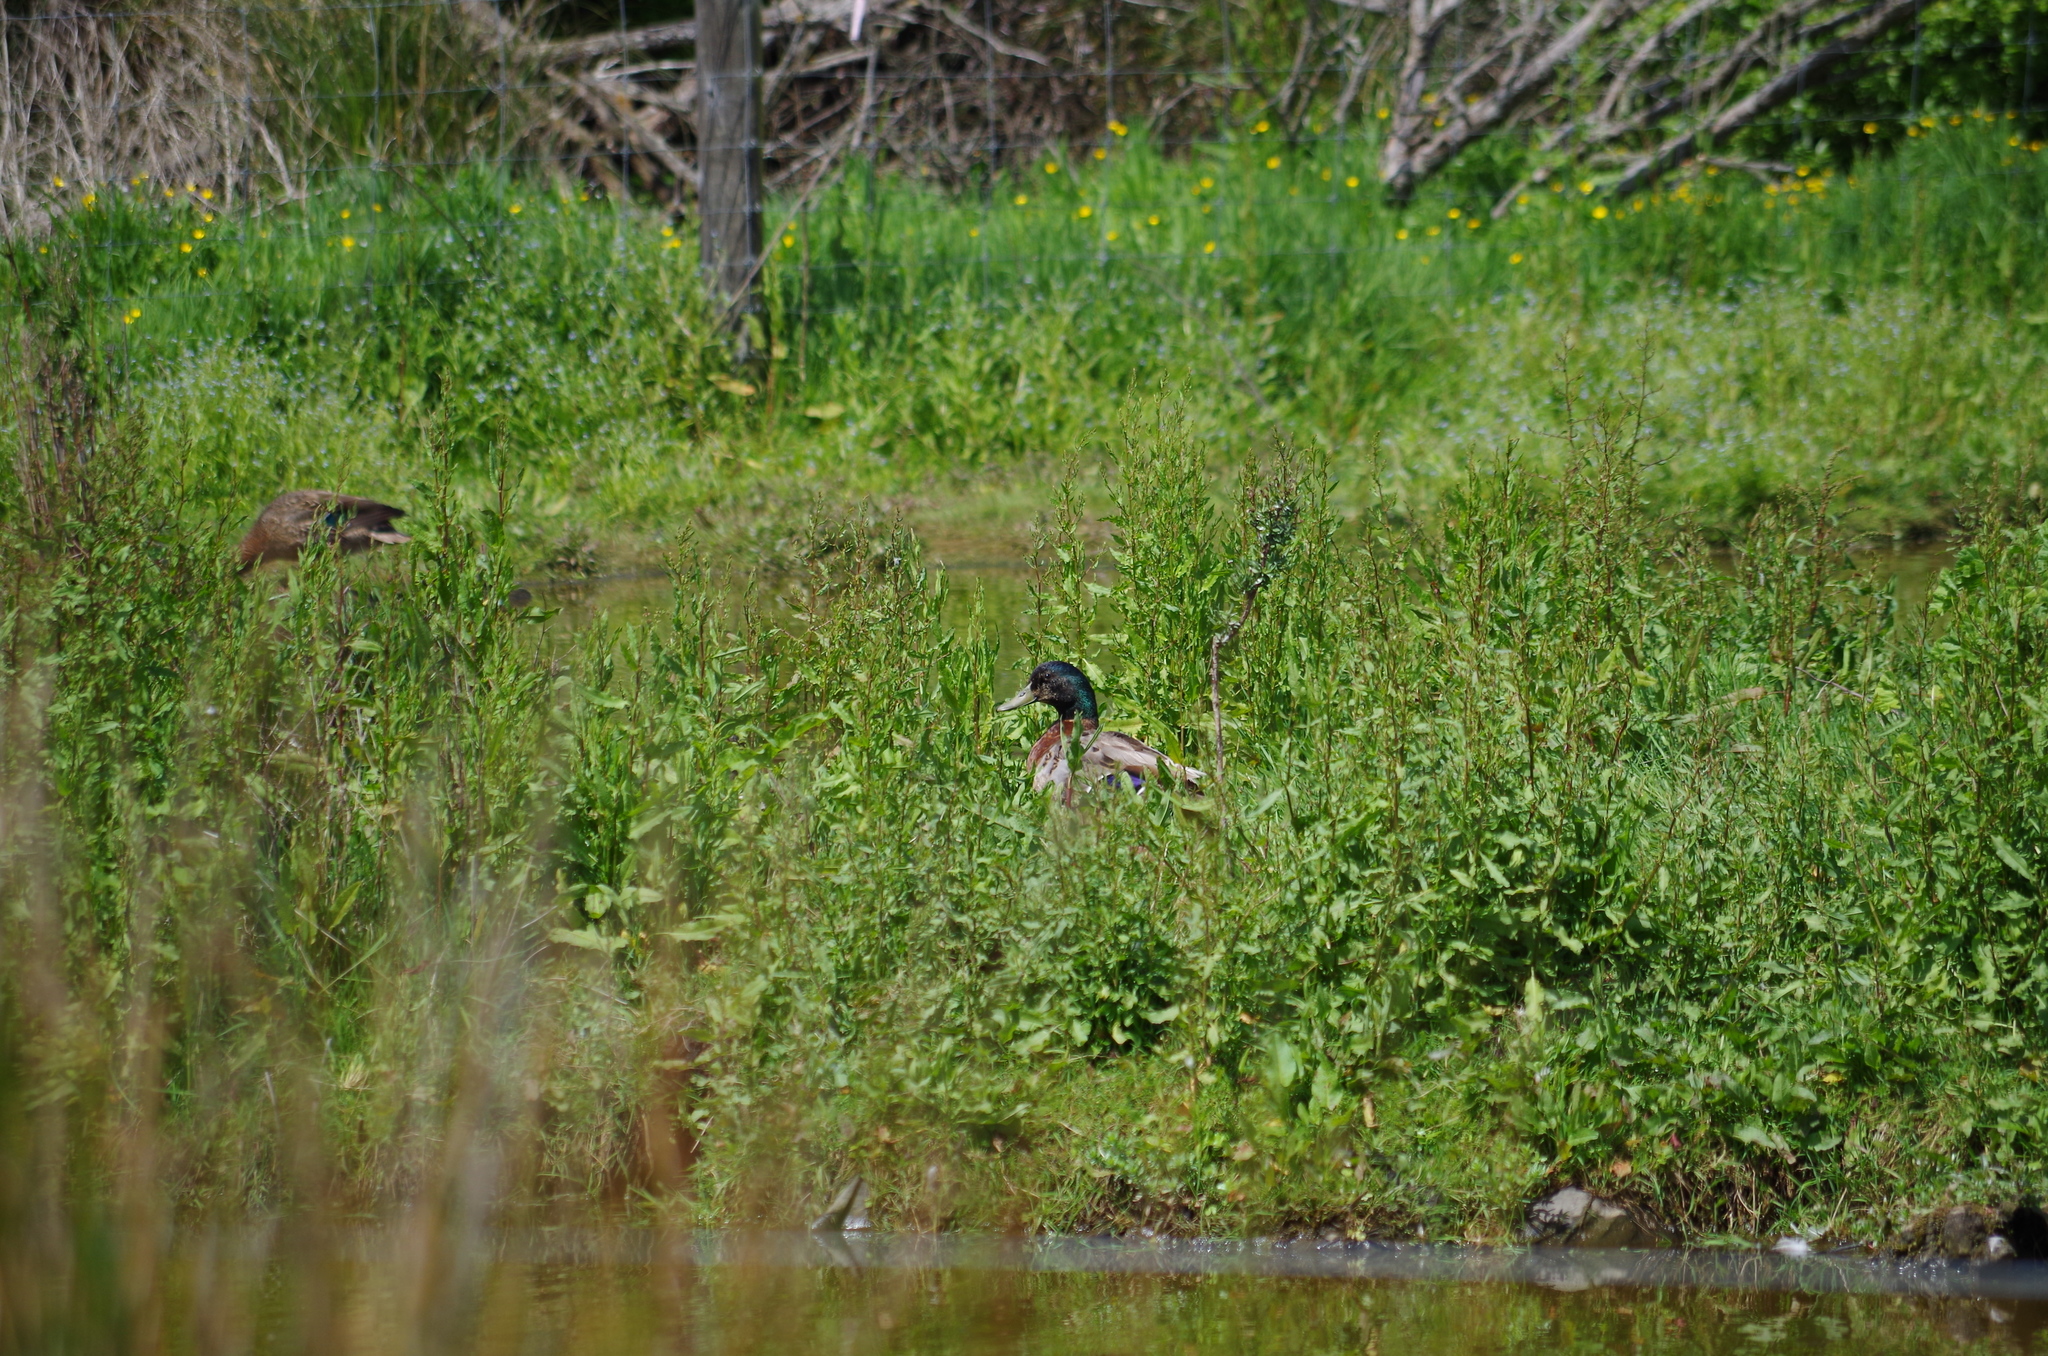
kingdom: Animalia
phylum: Chordata
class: Aves
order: Anseriformes
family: Anatidae
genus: Anas
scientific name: Anas platyrhynchos
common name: Mallard
